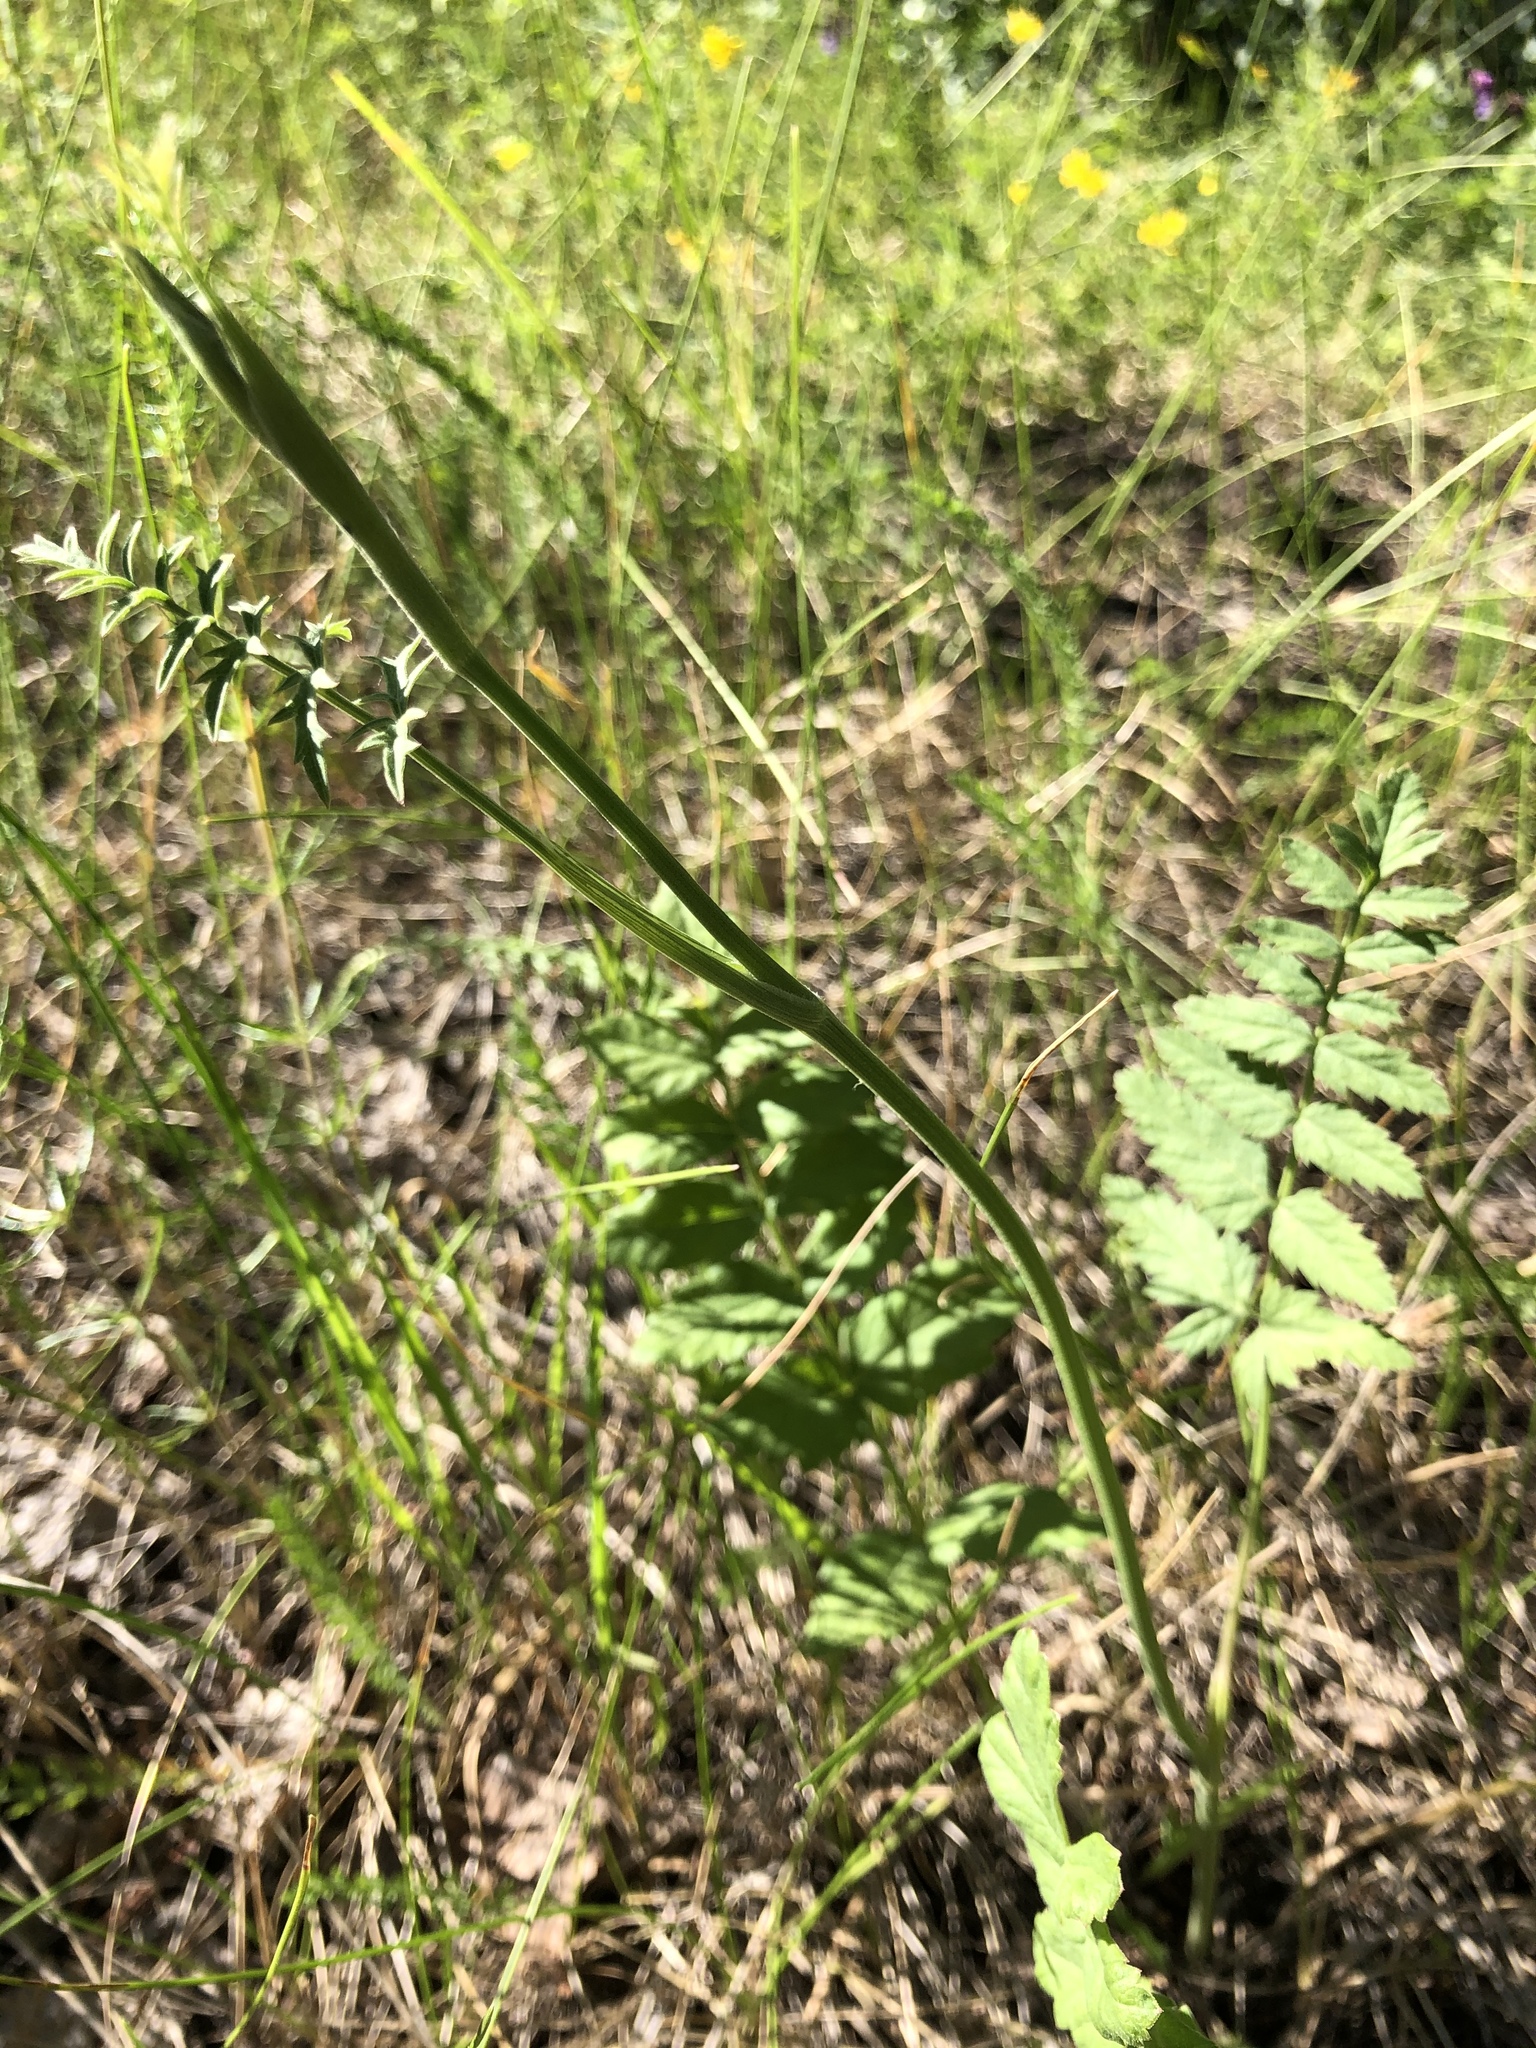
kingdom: Plantae
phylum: Tracheophyta
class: Magnoliopsida
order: Apiales
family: Apiaceae
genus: Pimpinella
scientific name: Pimpinella saxifraga
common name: Burnet-saxifrage
